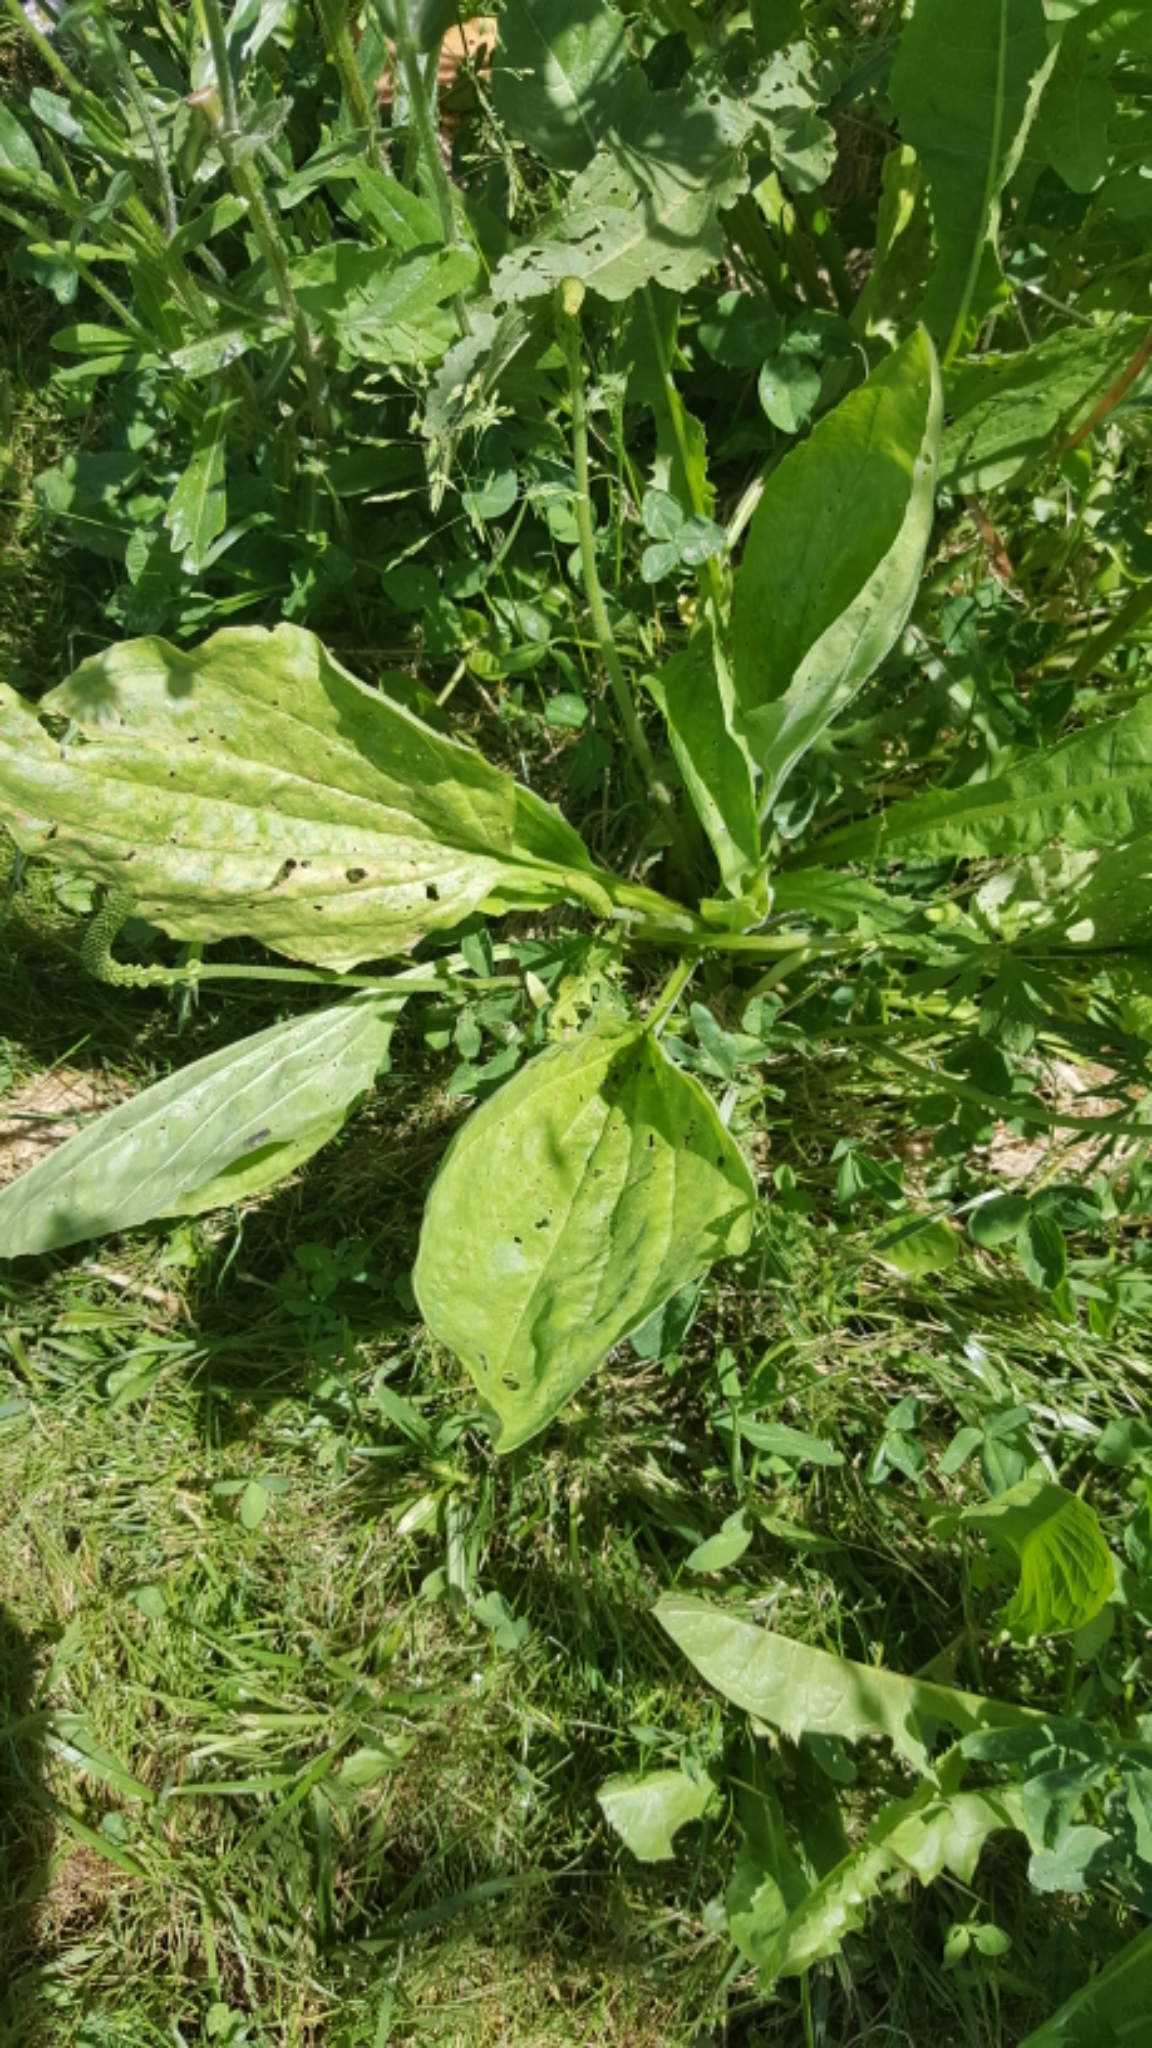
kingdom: Plantae
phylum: Tracheophyta
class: Magnoliopsida
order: Lamiales
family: Plantaginaceae
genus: Plantago
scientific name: Plantago major
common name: Common plantain
